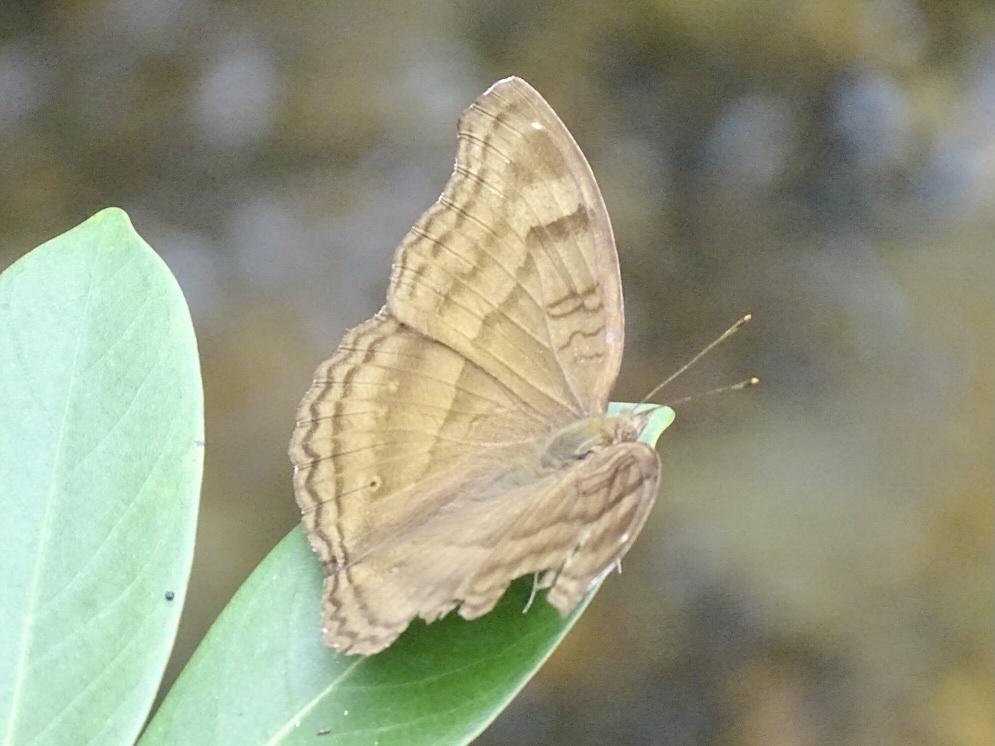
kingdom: Animalia
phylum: Arthropoda
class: Insecta
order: Lepidoptera
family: Nymphalidae
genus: Junonia
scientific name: Junonia iphita
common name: Chocolate pansy
